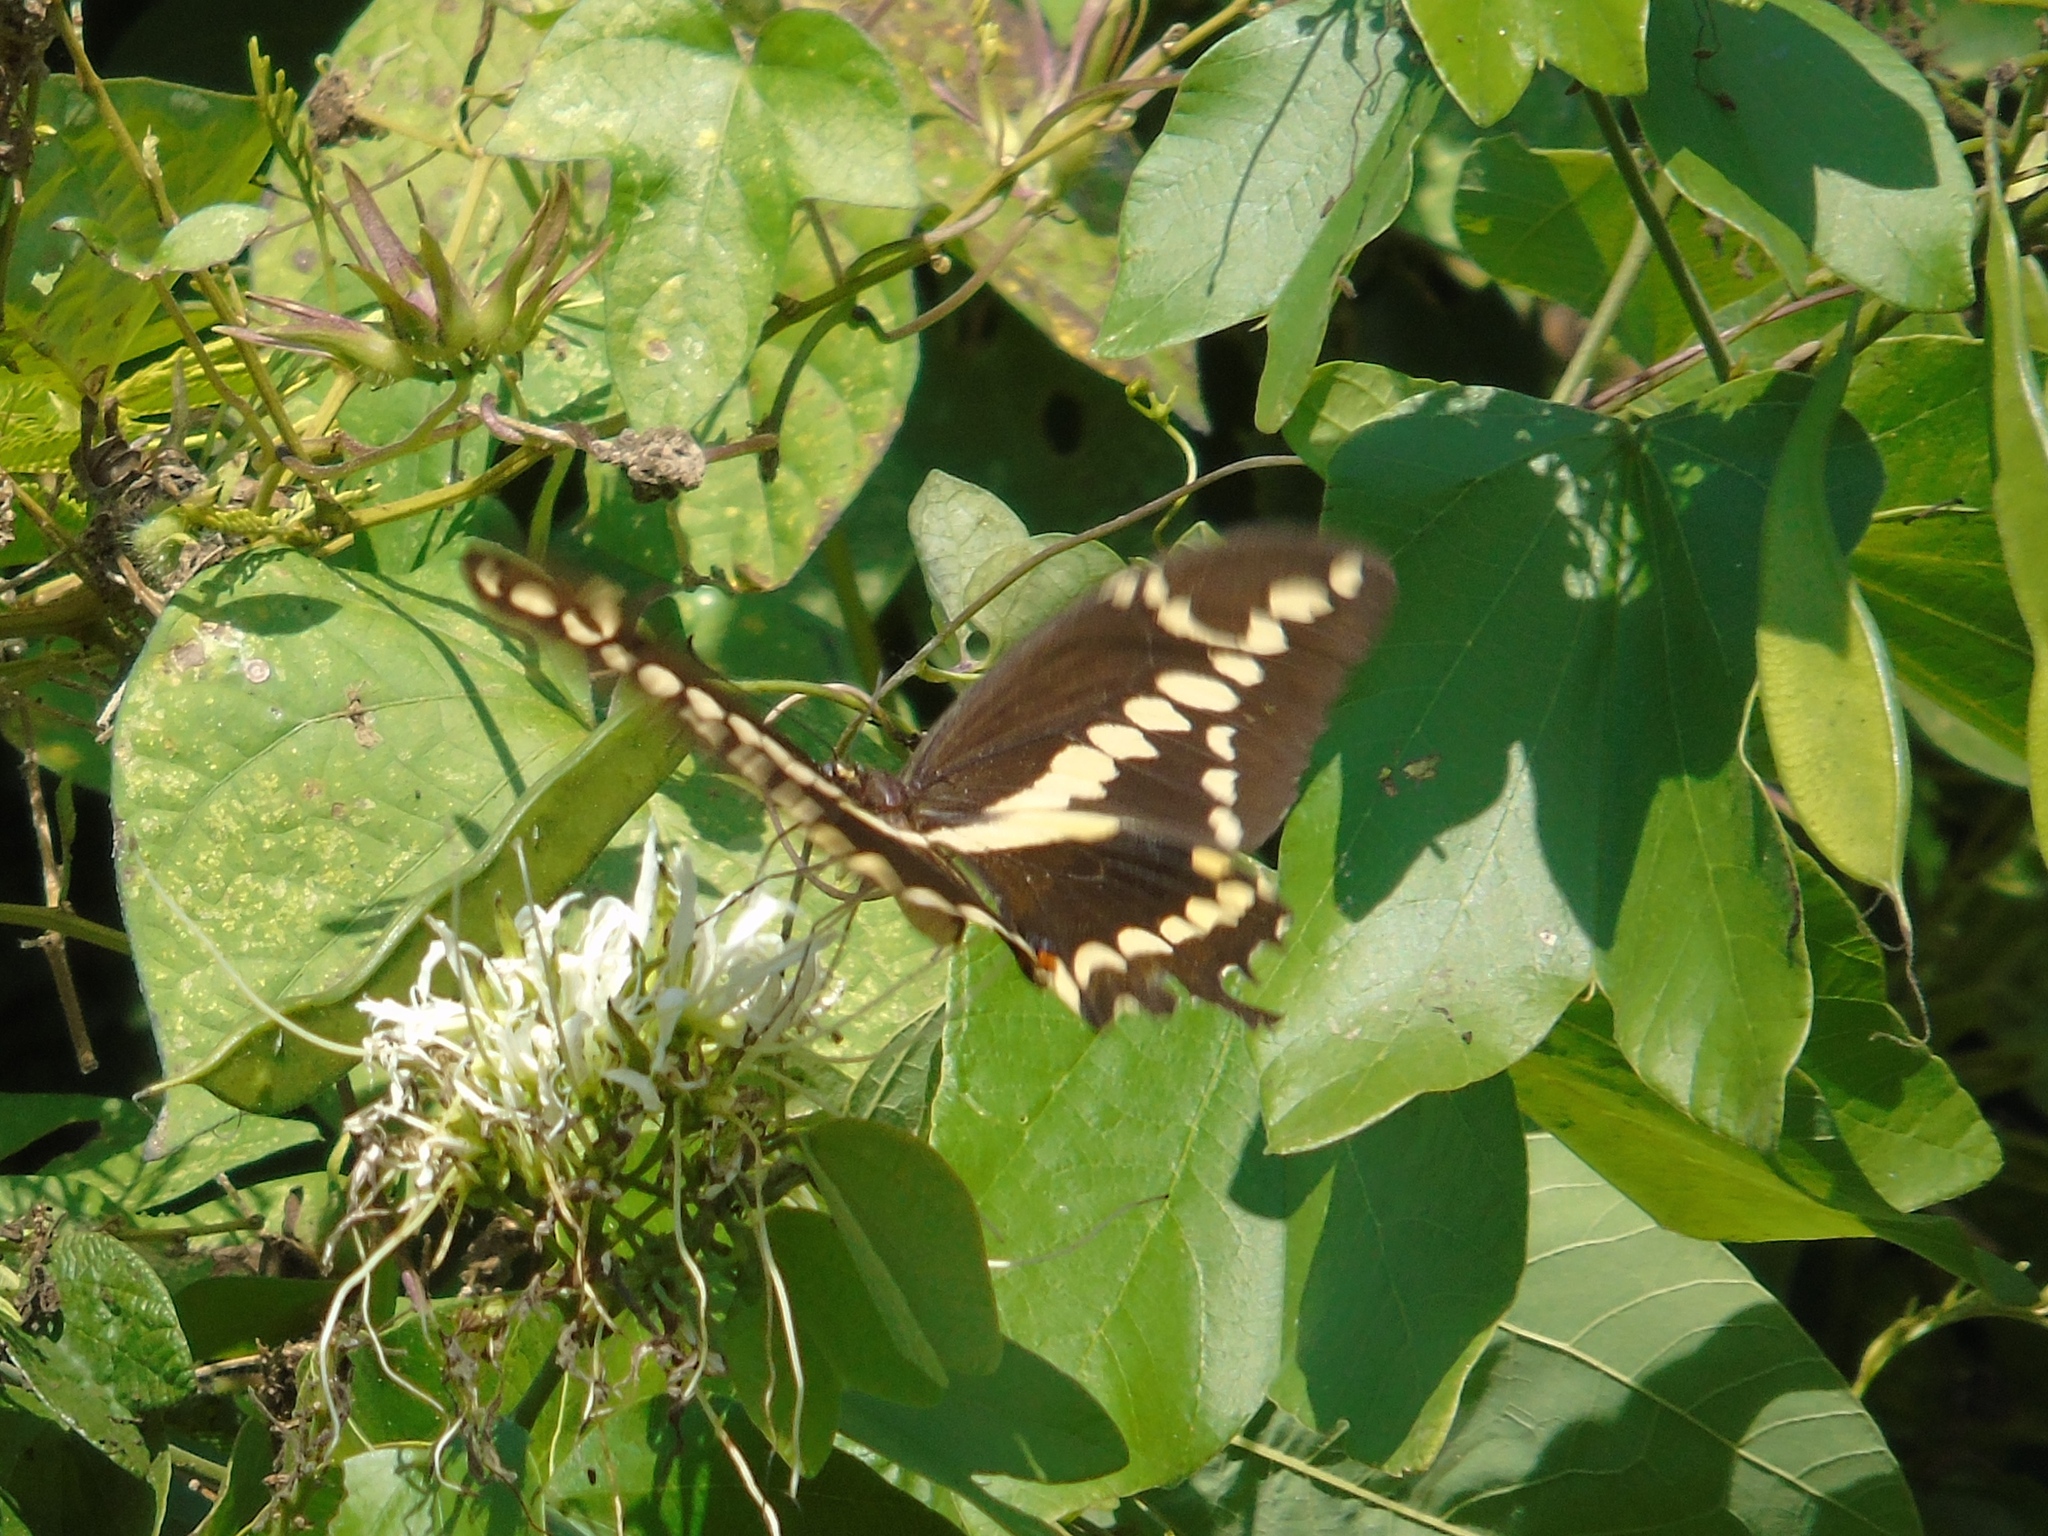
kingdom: Animalia
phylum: Arthropoda
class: Insecta
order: Lepidoptera
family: Papilionidae
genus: Papilio
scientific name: Papilio rumiko
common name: Western giant swallowtail
